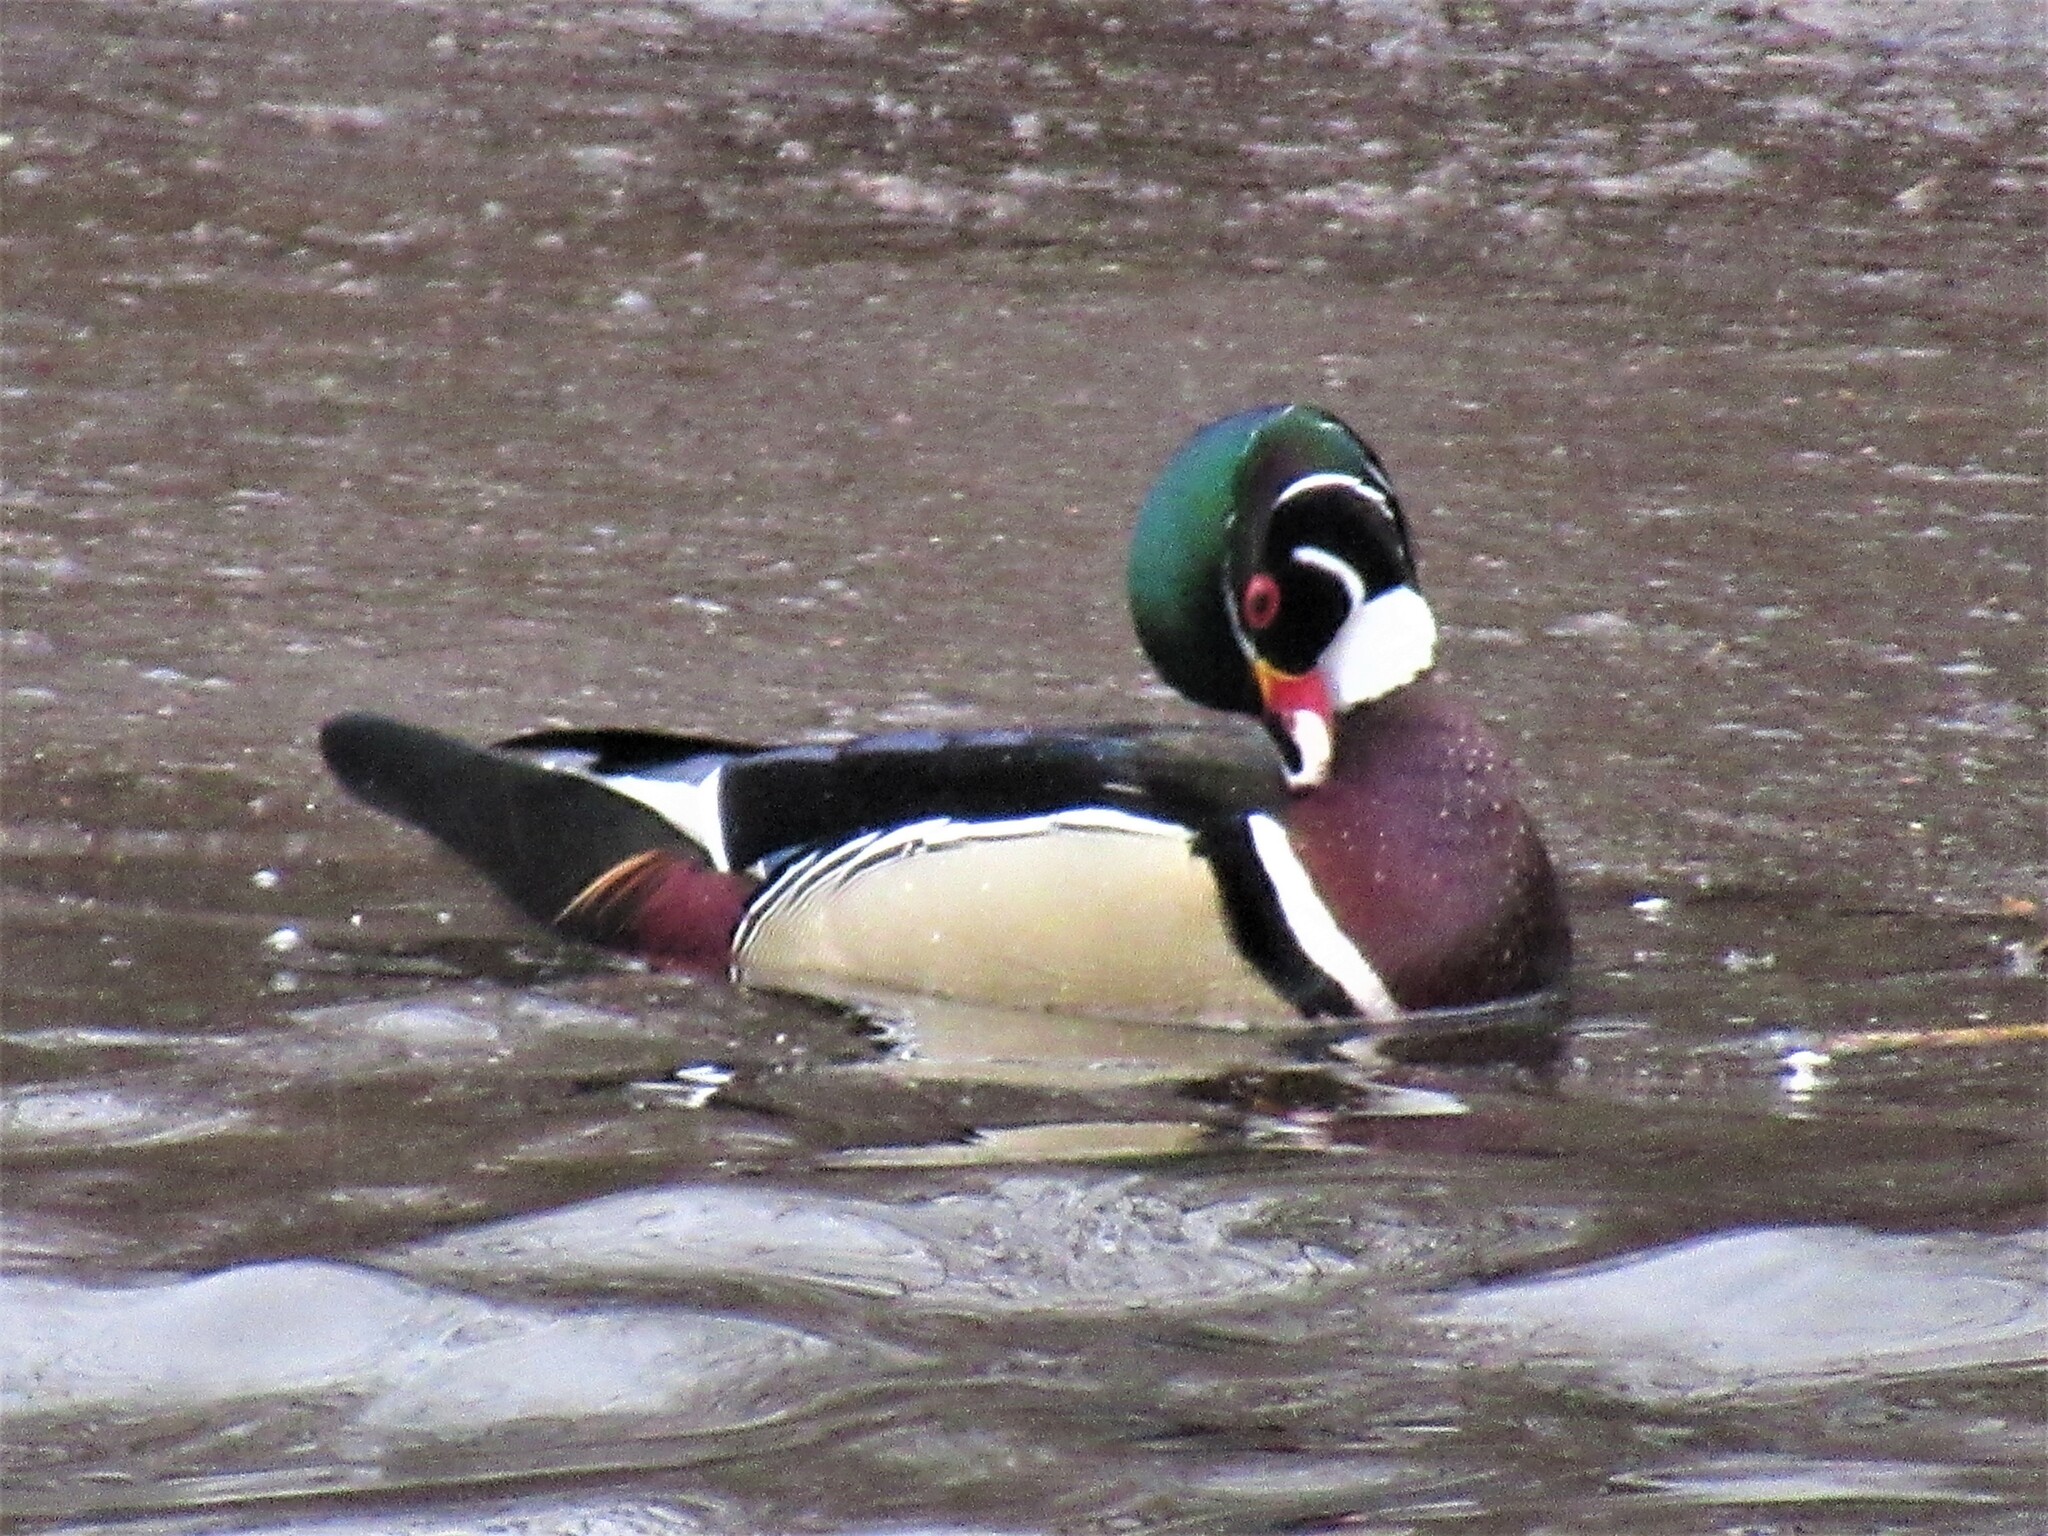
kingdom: Animalia
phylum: Chordata
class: Aves
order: Anseriformes
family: Anatidae
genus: Aix
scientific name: Aix sponsa
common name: Wood duck
